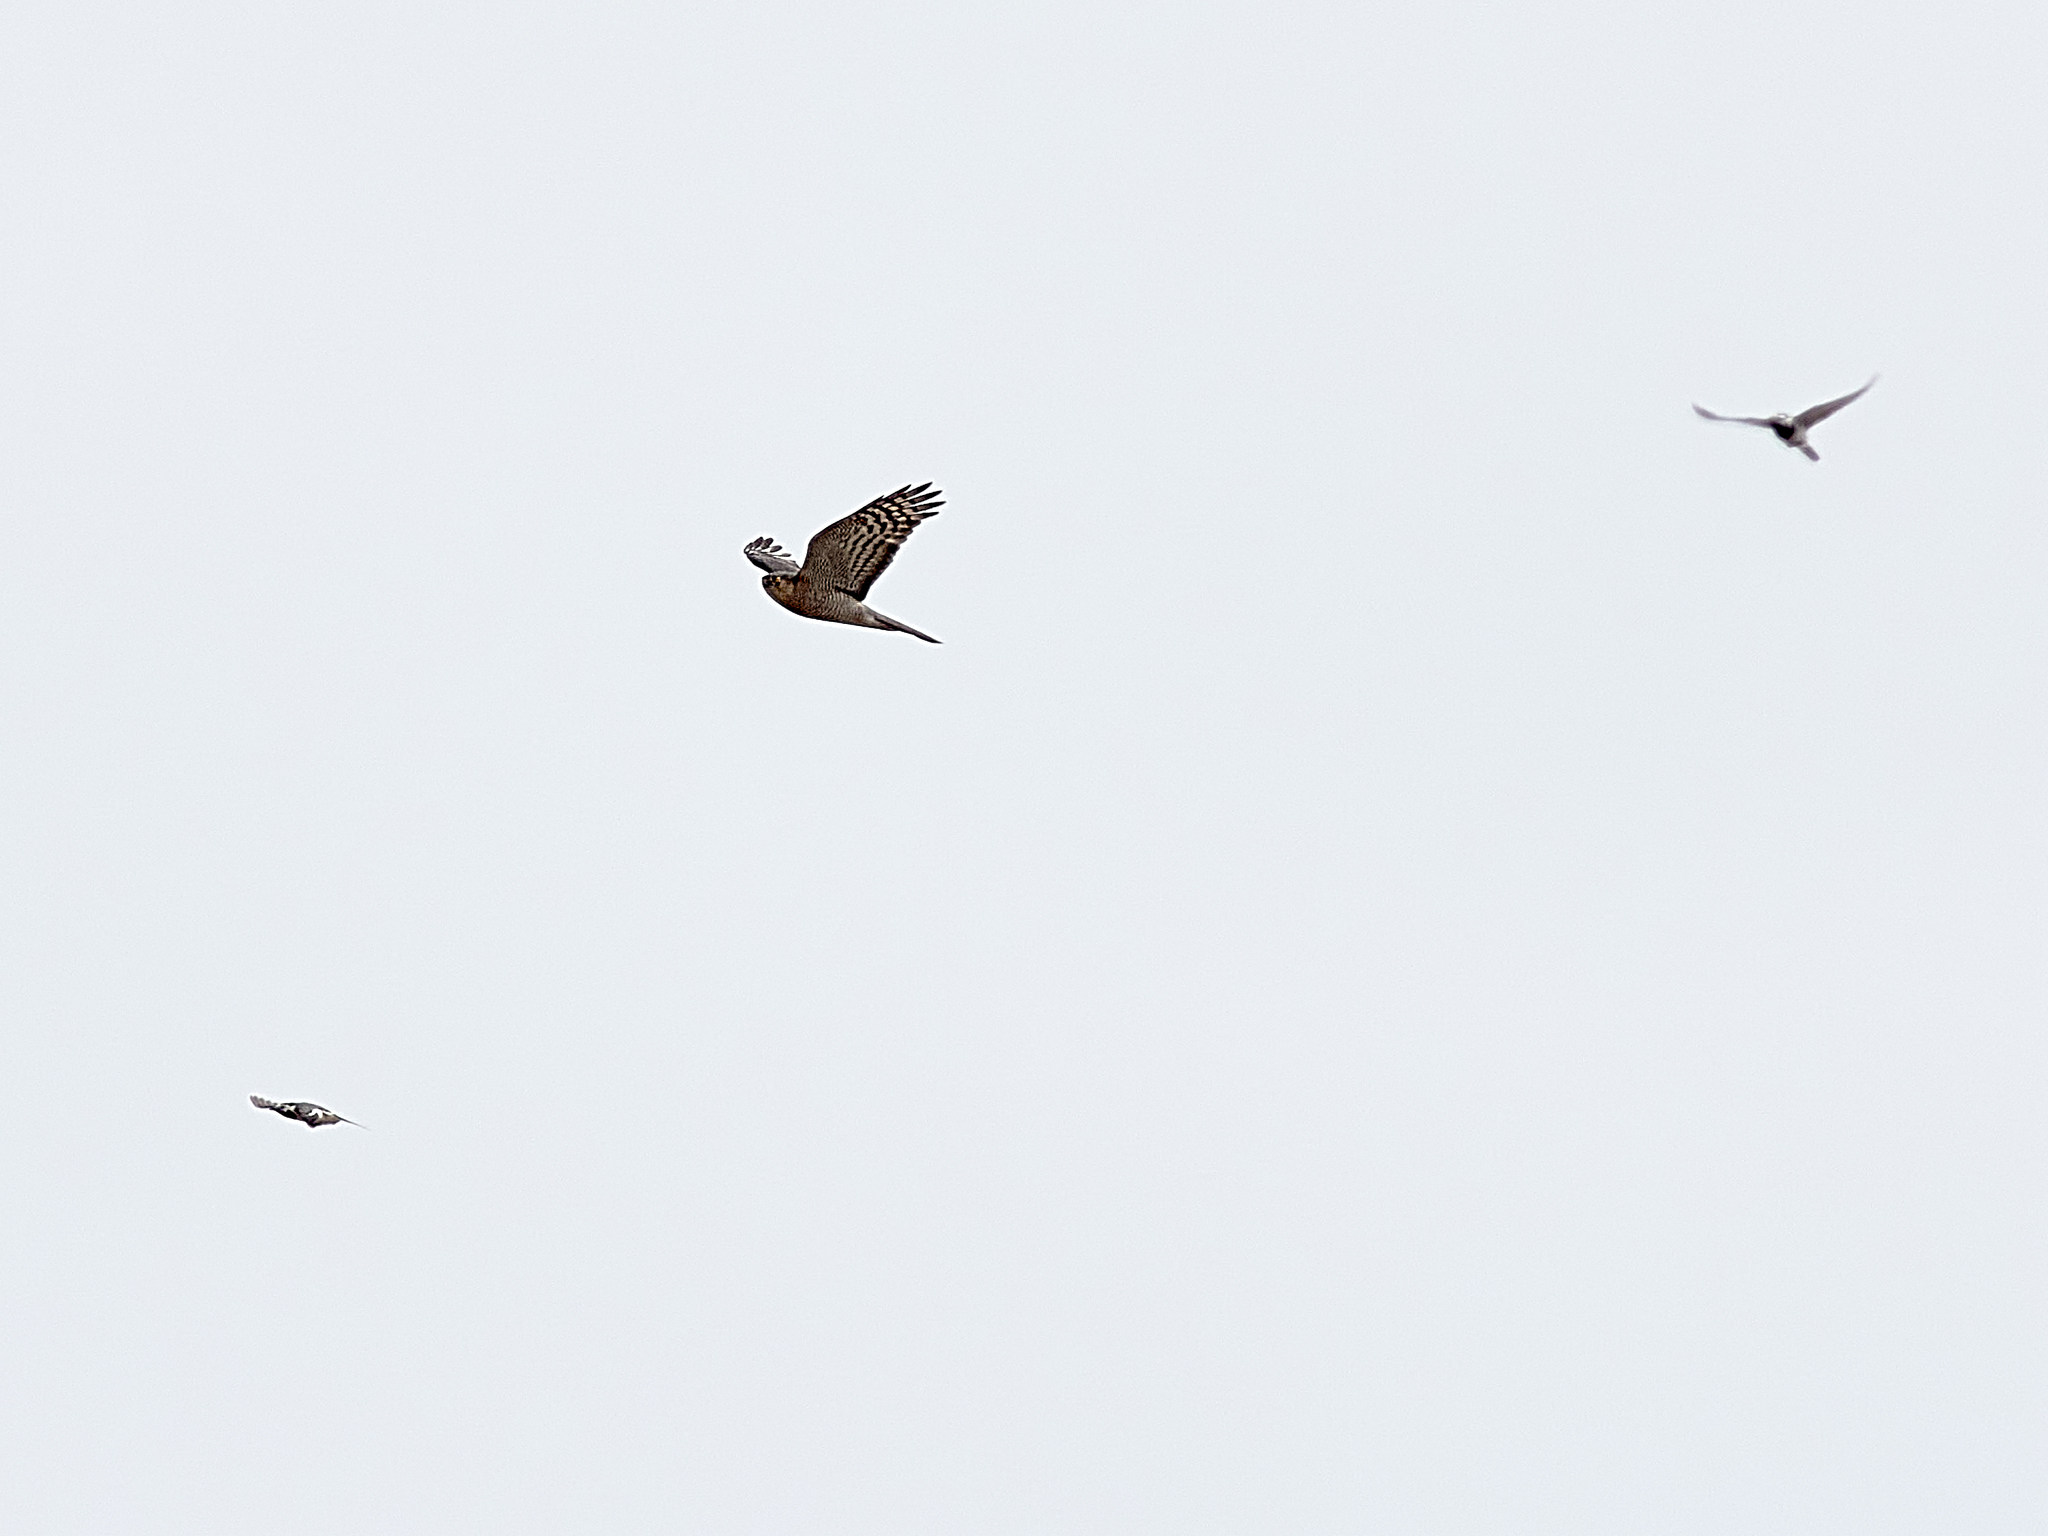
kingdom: Animalia
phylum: Chordata
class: Aves
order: Accipitriformes
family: Accipitridae
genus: Accipiter
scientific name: Accipiter nisus
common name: Eurasian sparrowhawk
